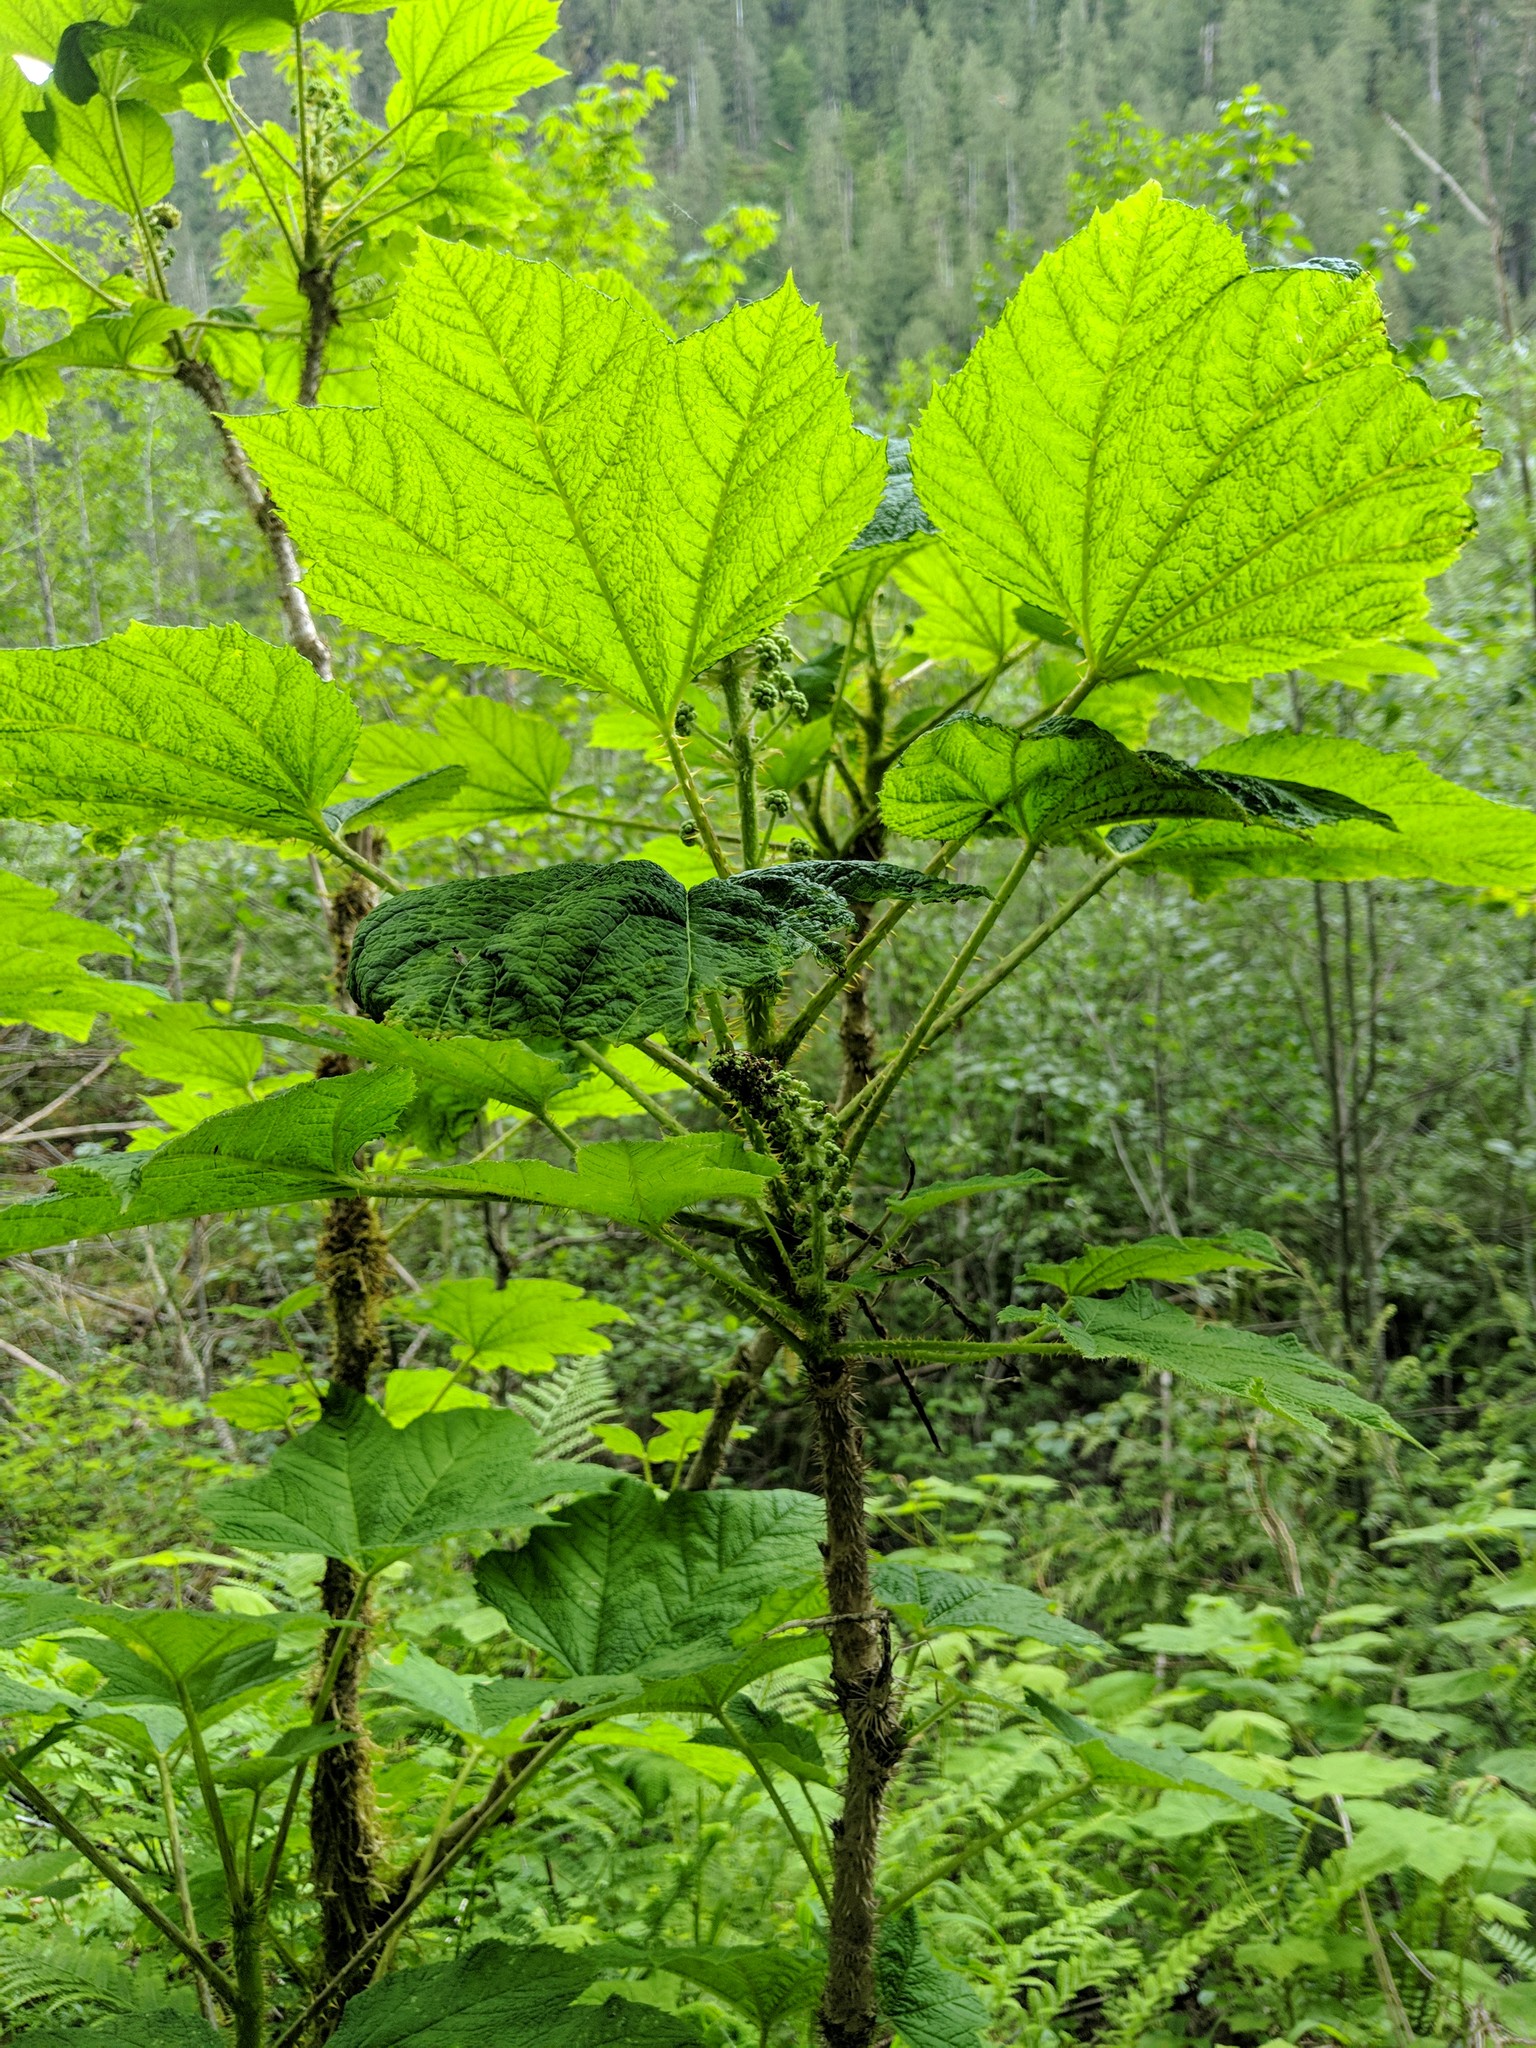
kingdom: Plantae
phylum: Tracheophyta
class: Magnoliopsida
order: Apiales
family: Araliaceae
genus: Oplopanax
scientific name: Oplopanax horridus
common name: Devil's walking-stick
